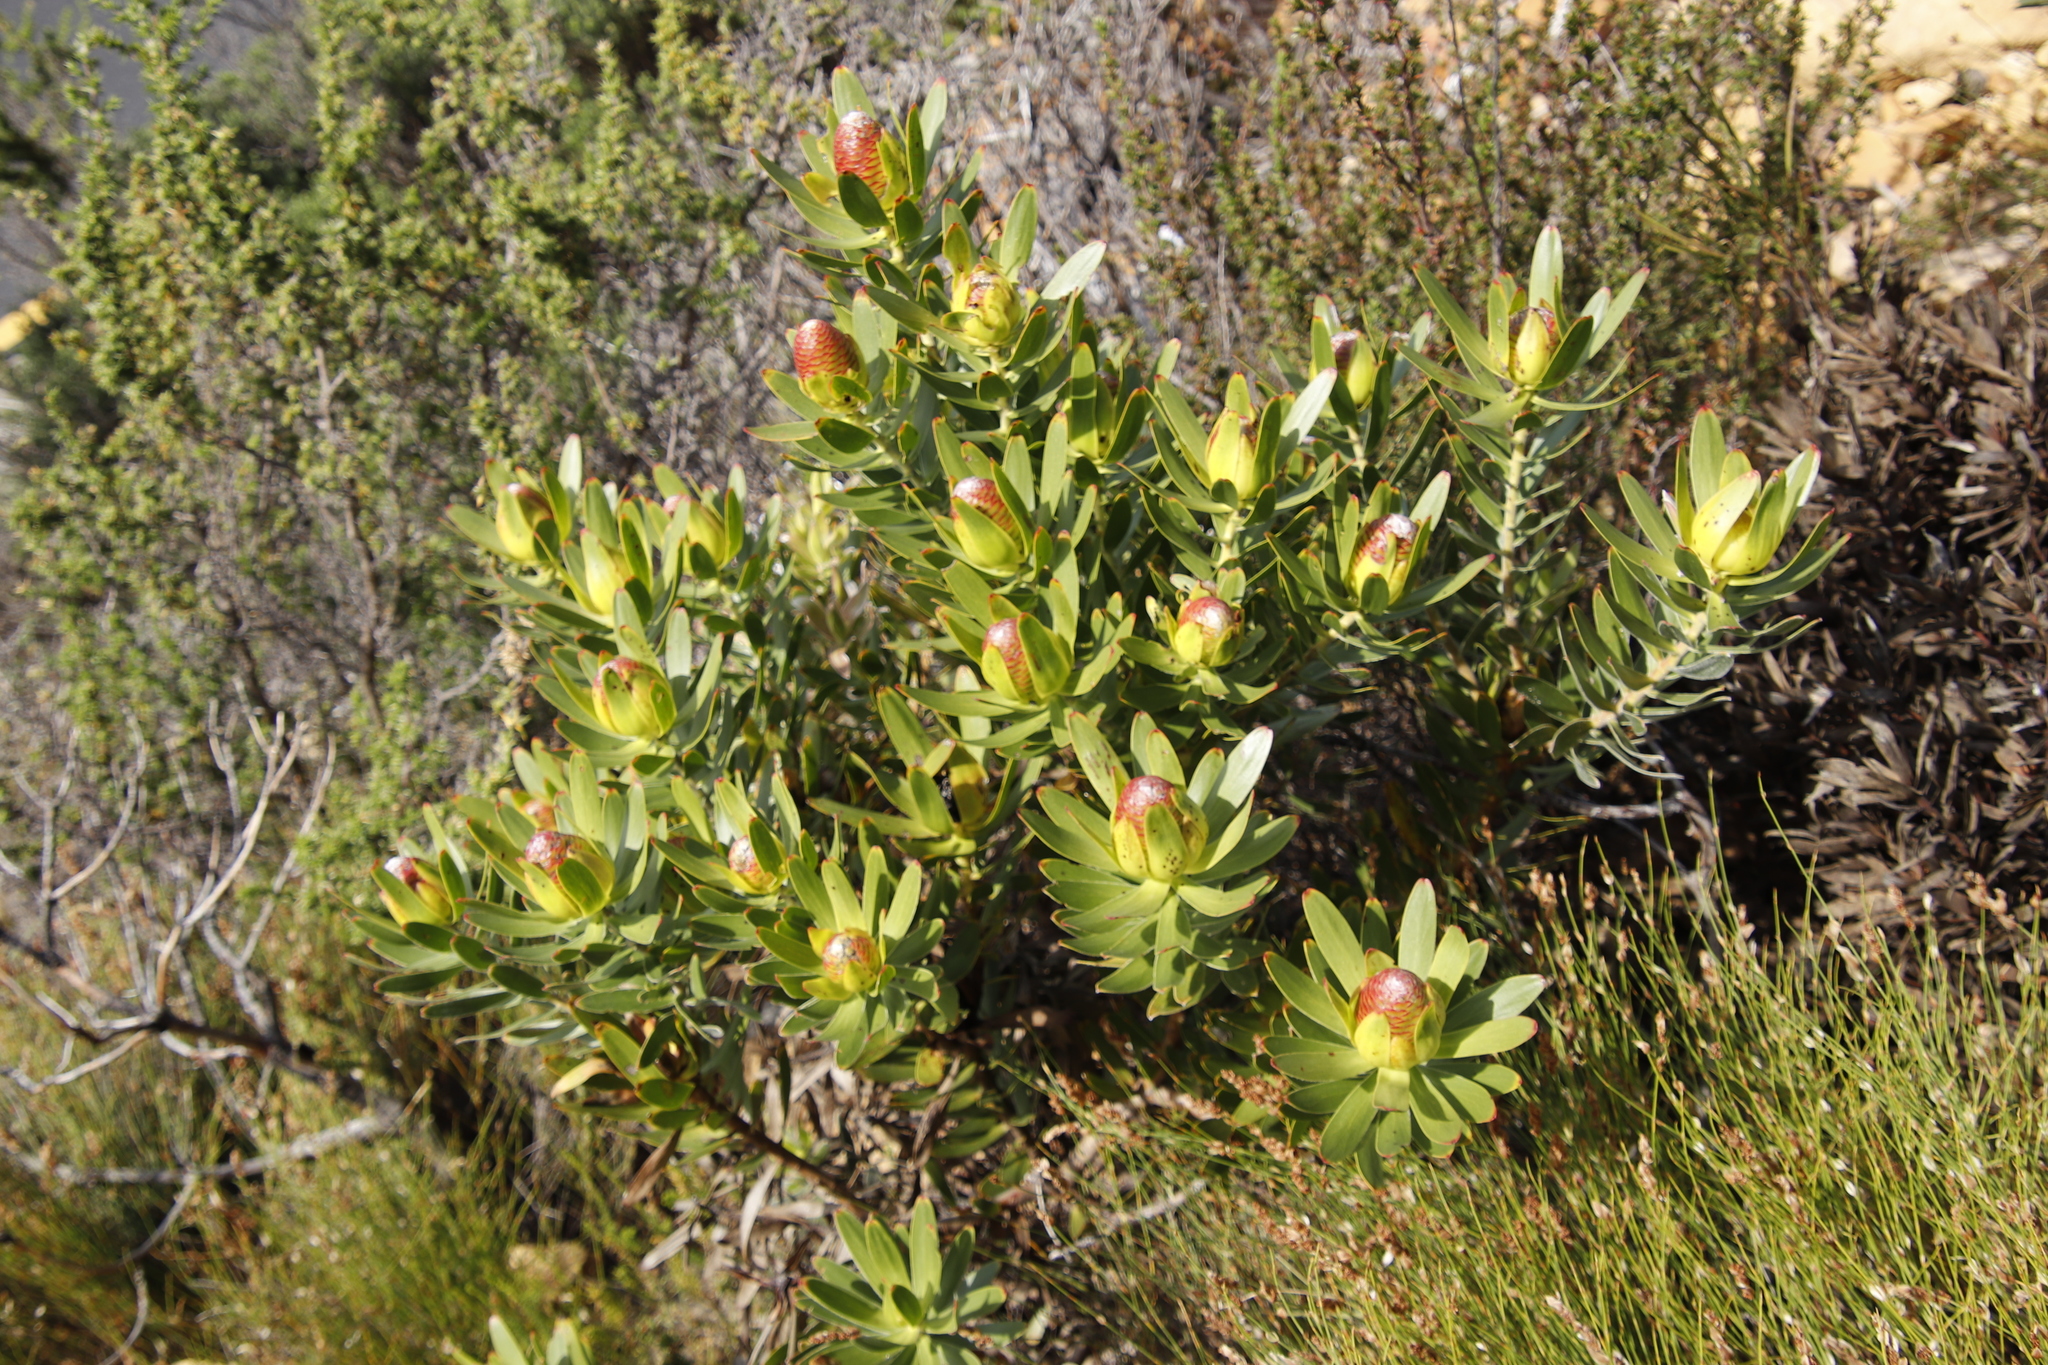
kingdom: Plantae
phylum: Tracheophyta
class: Magnoliopsida
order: Proteales
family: Proteaceae
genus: Leucadendron
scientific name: Leucadendron laureolum
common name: Golden sunshinebush
